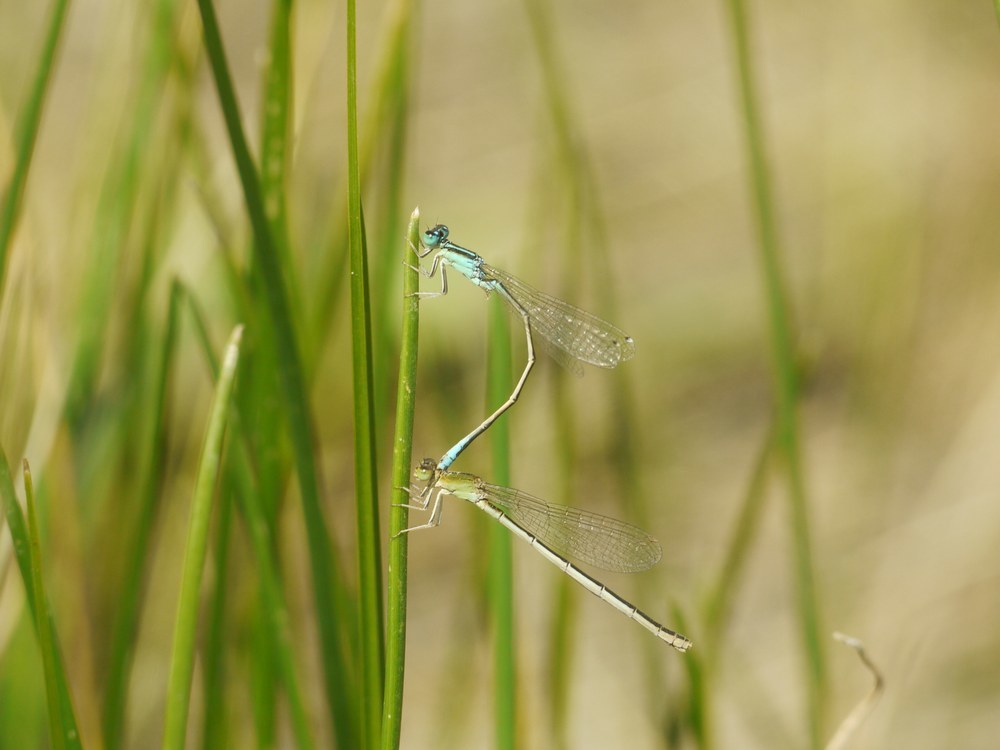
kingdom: Animalia
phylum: Arthropoda
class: Insecta
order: Odonata
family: Coenagrionidae
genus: Ischnura
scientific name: Ischnura pumilio
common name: Scarce blue-tailed damselfly
